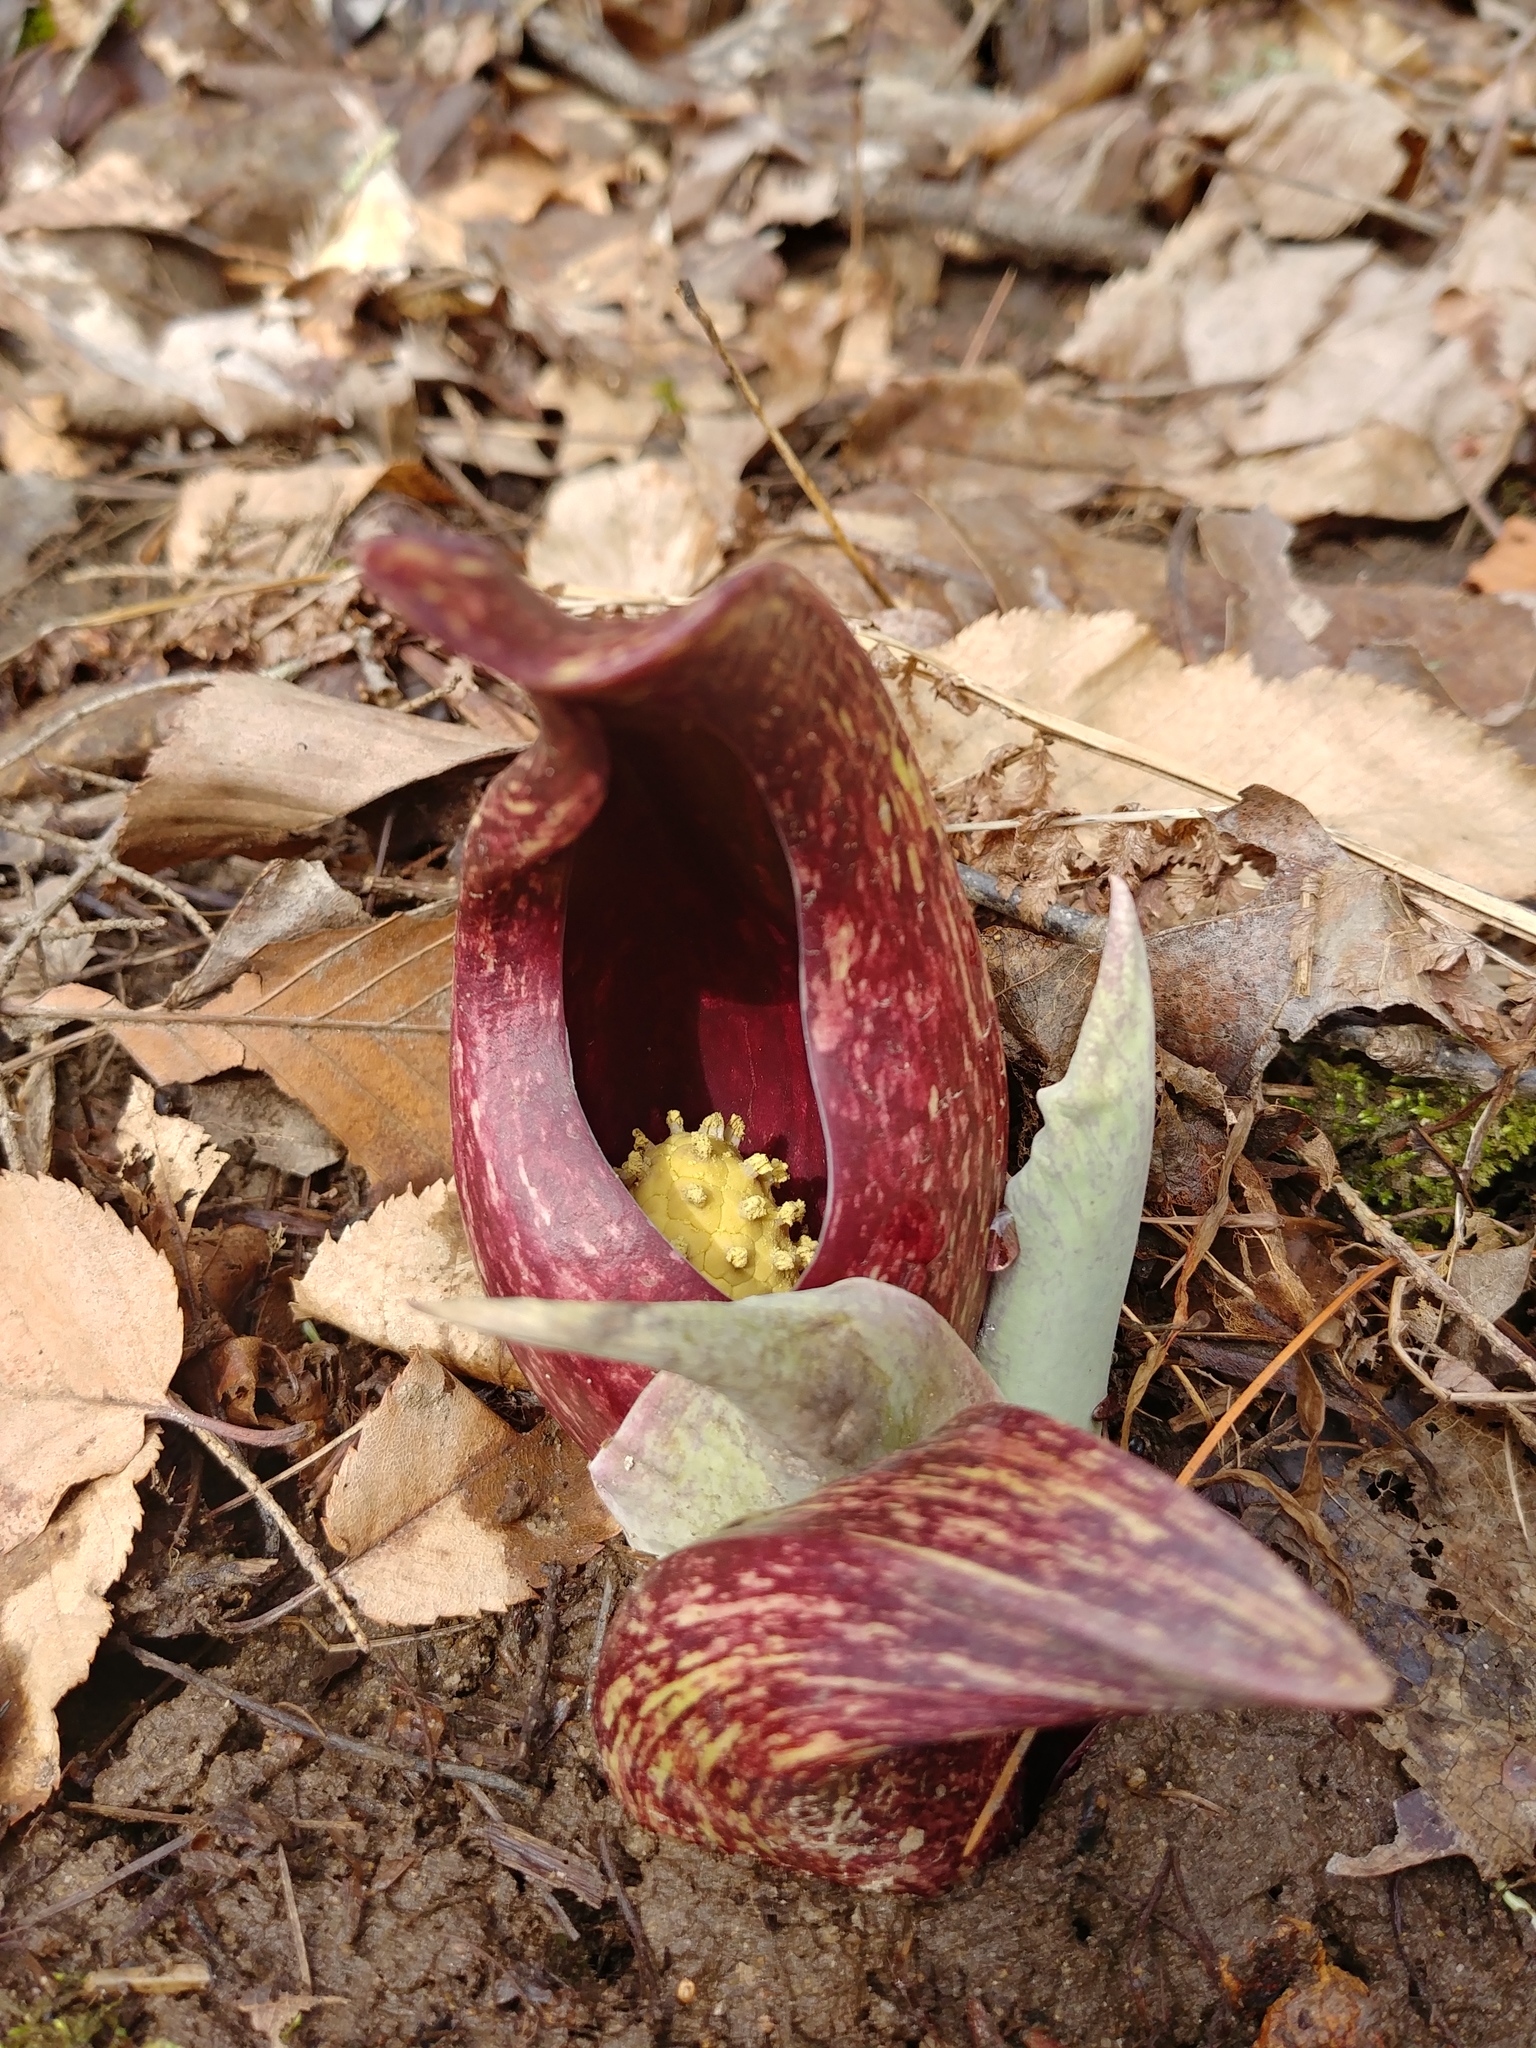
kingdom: Plantae
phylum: Tracheophyta
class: Liliopsida
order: Alismatales
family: Araceae
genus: Symplocarpus
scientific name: Symplocarpus foetidus
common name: Eastern skunk cabbage
